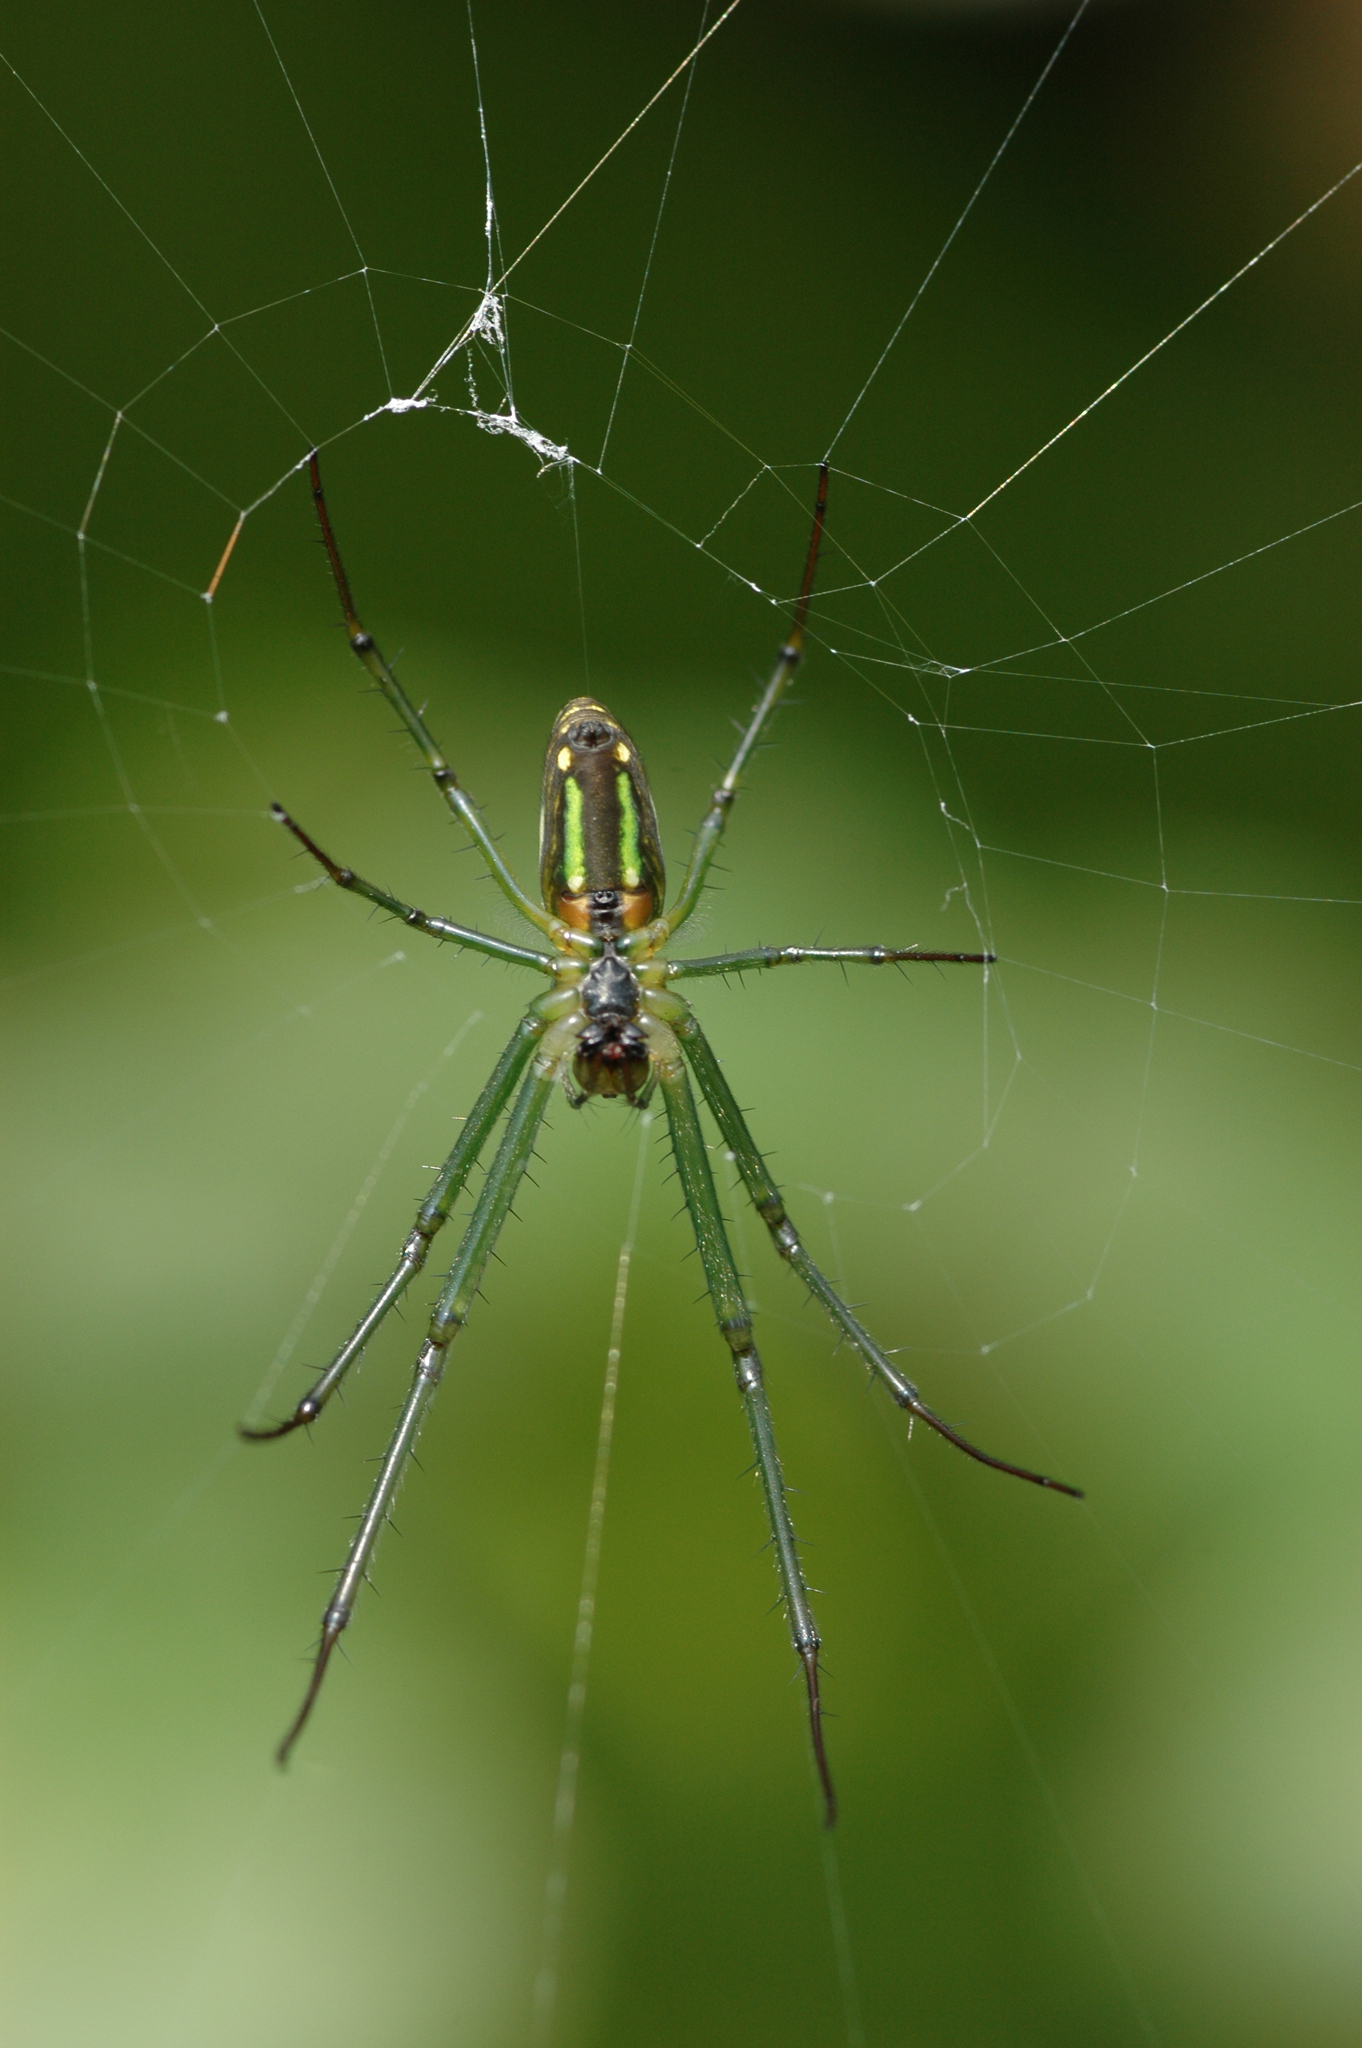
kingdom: Animalia
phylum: Arthropoda
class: Arachnida
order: Araneae
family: Tetragnathidae
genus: Leucauge
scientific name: Leucauge celebesiana
